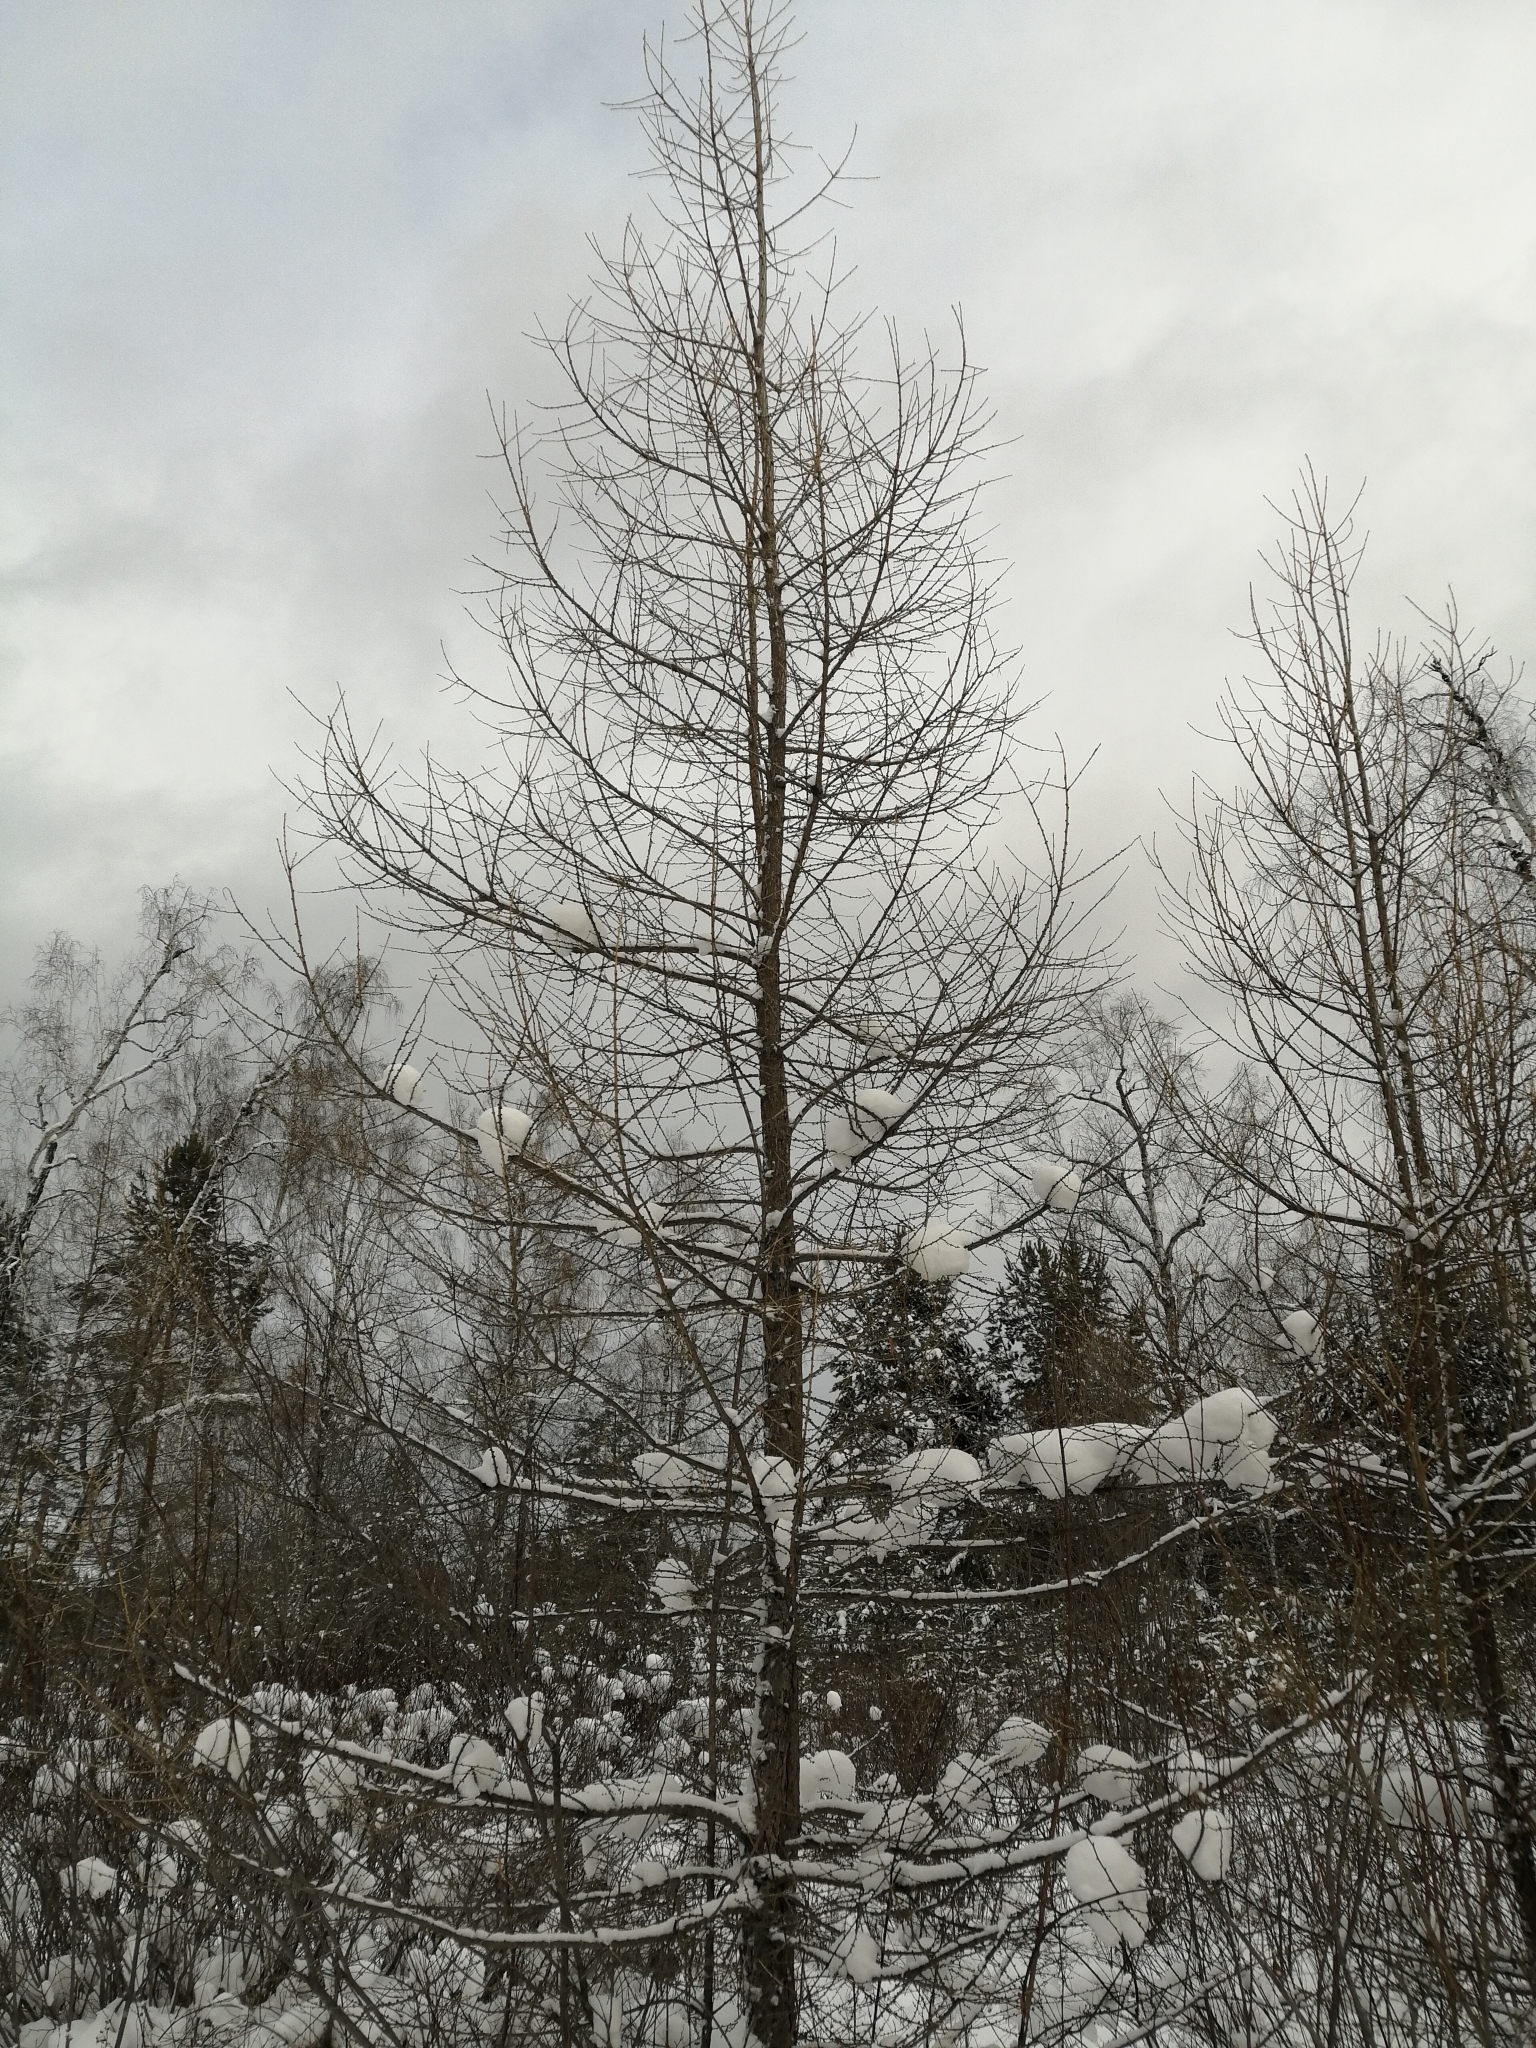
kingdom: Plantae
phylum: Tracheophyta
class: Pinopsida
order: Pinales
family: Pinaceae
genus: Larix
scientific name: Larix sibirica
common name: Siberian larch
